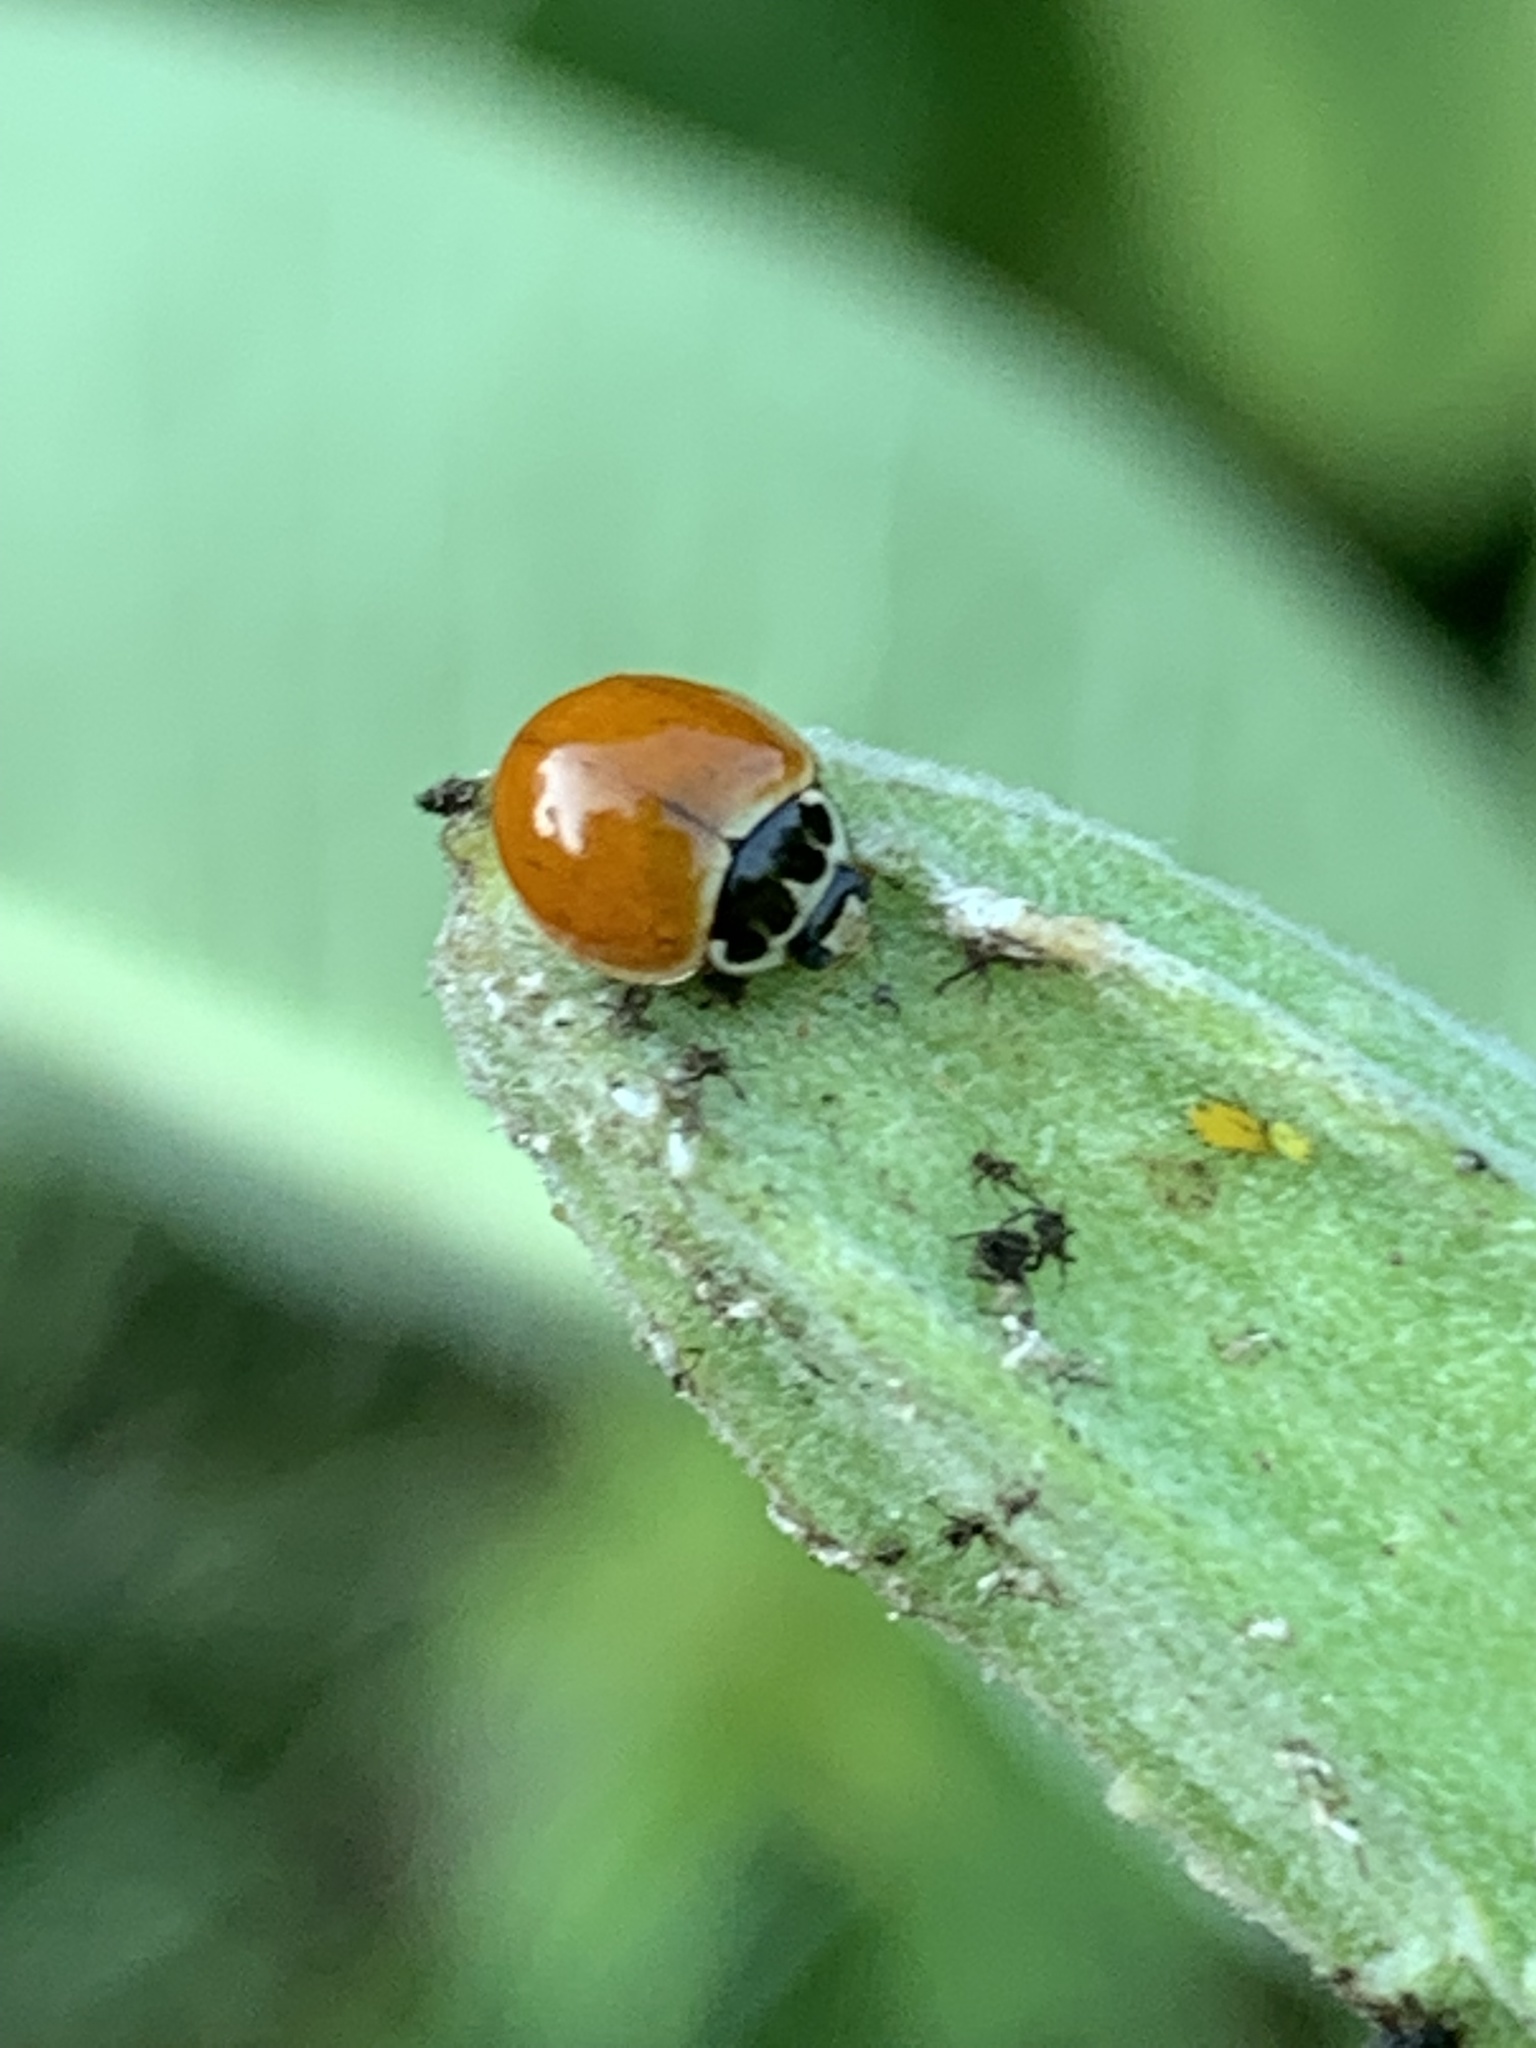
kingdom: Animalia
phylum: Arthropoda
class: Insecta
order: Coleoptera
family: Coccinellidae
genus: Cycloneda
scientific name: Cycloneda munda
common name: Polished lady beetle
